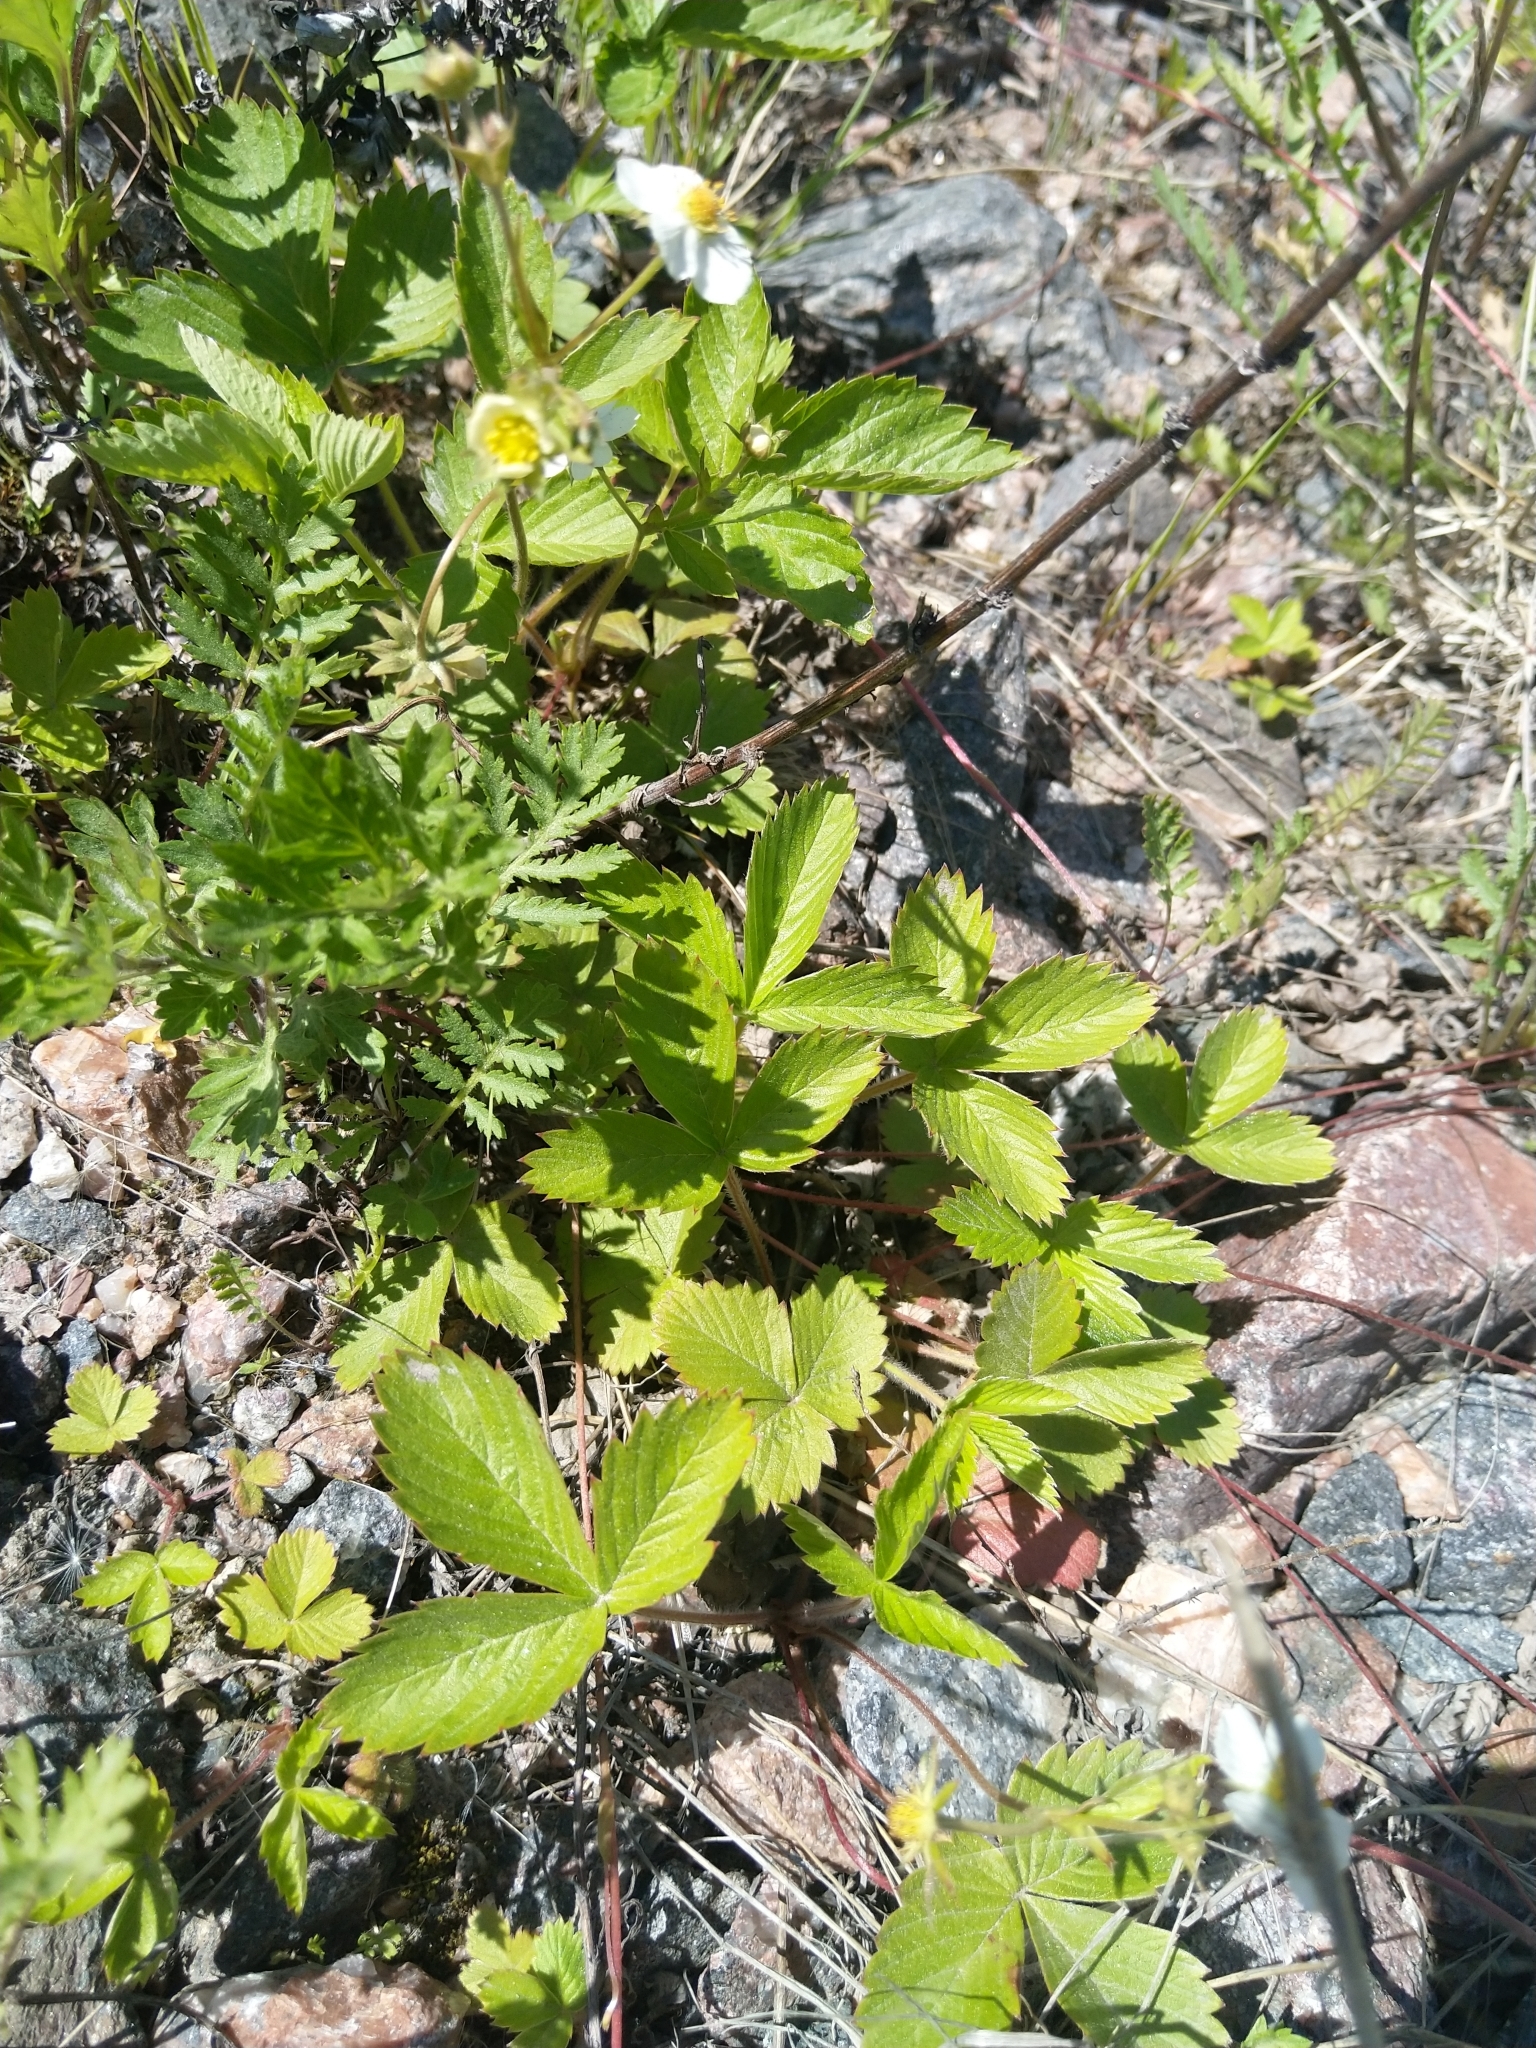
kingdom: Plantae
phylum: Tracheophyta
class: Magnoliopsida
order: Rosales
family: Rosaceae
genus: Fragaria
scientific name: Fragaria vesca
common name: Wild strawberry
